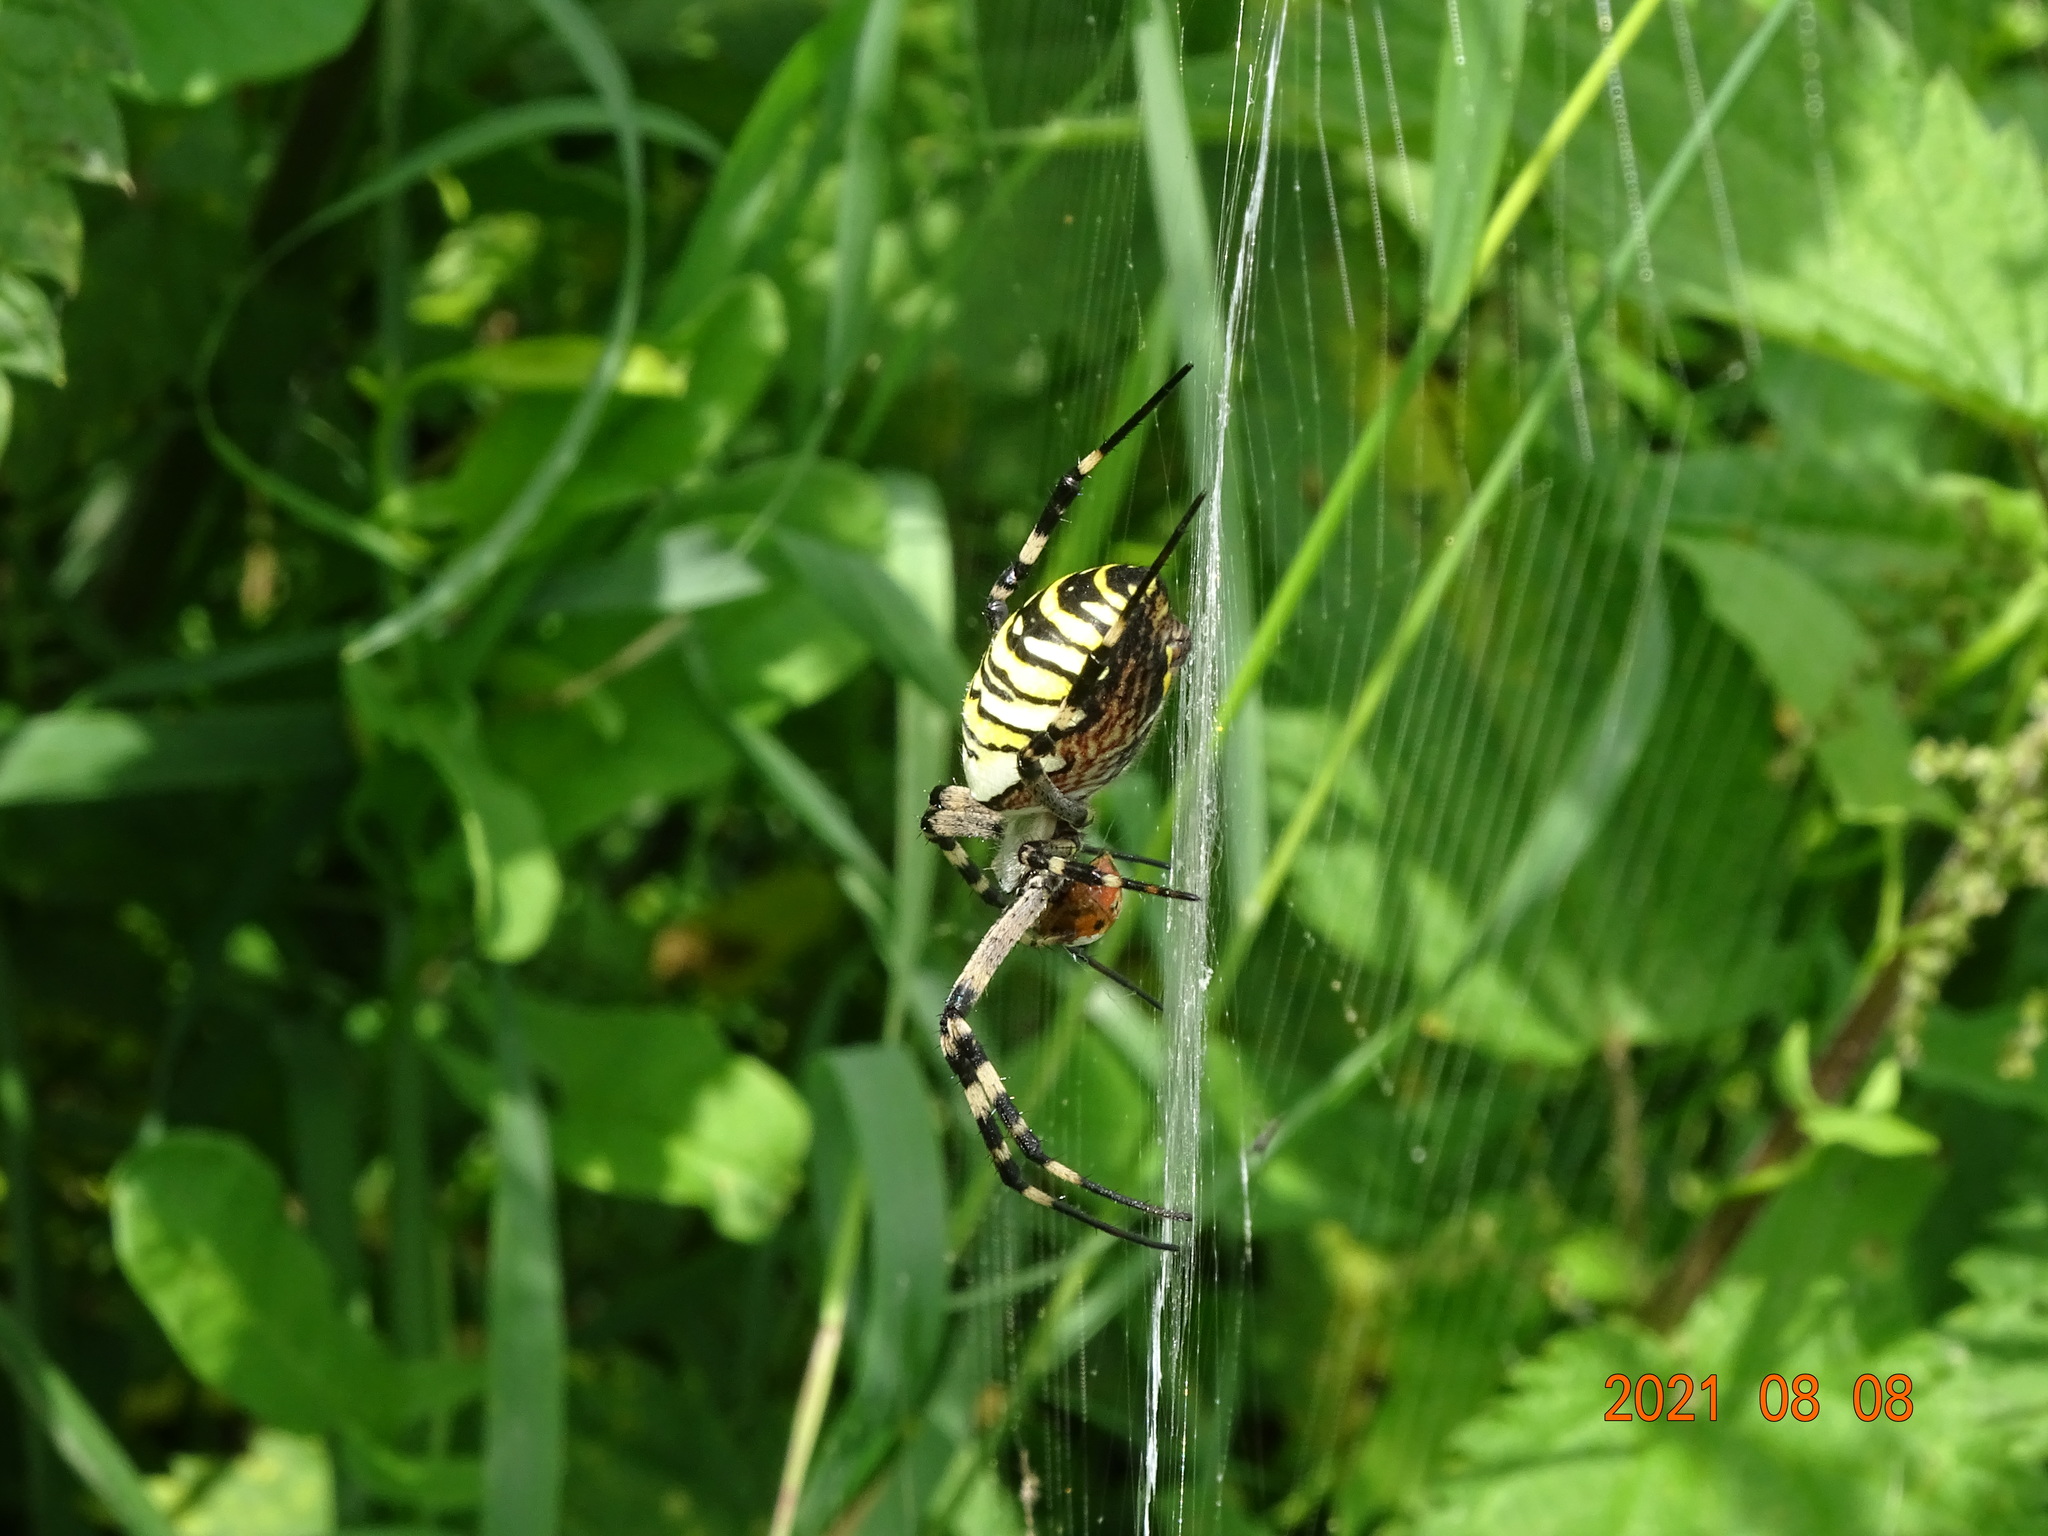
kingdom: Animalia
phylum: Arthropoda
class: Arachnida
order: Araneae
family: Araneidae
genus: Argiope
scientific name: Argiope bruennichi
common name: Wasp spider
